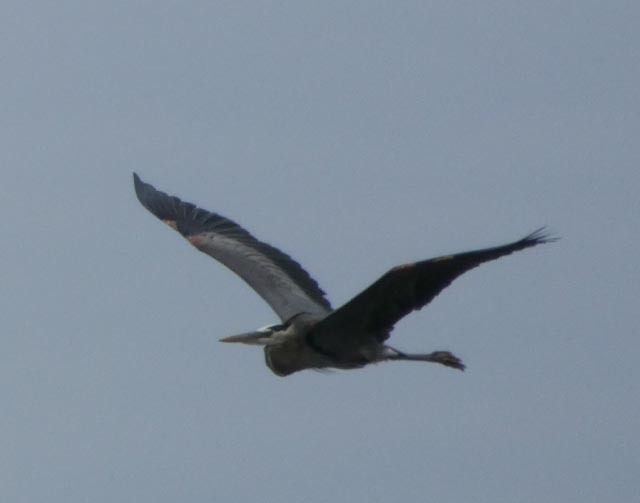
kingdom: Animalia
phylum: Chordata
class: Aves
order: Pelecaniformes
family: Ardeidae
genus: Ardea
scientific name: Ardea herodias
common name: Great blue heron
